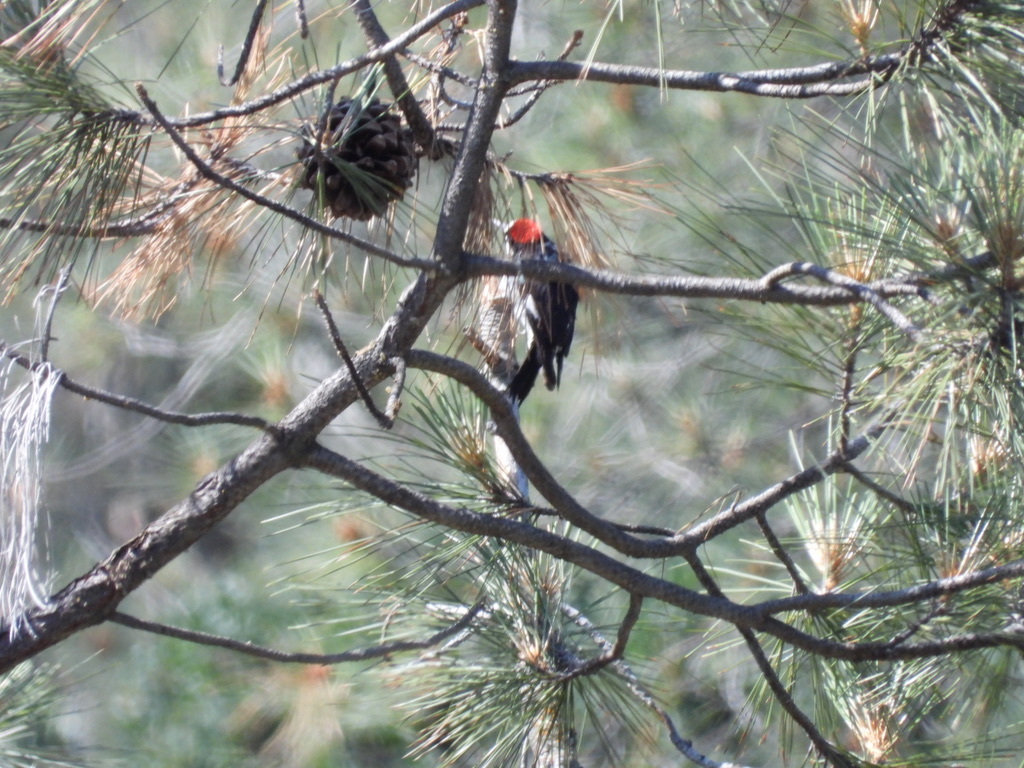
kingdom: Animalia
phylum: Chordata
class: Aves
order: Piciformes
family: Picidae
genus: Melanerpes
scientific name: Melanerpes formicivorus
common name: Acorn woodpecker
